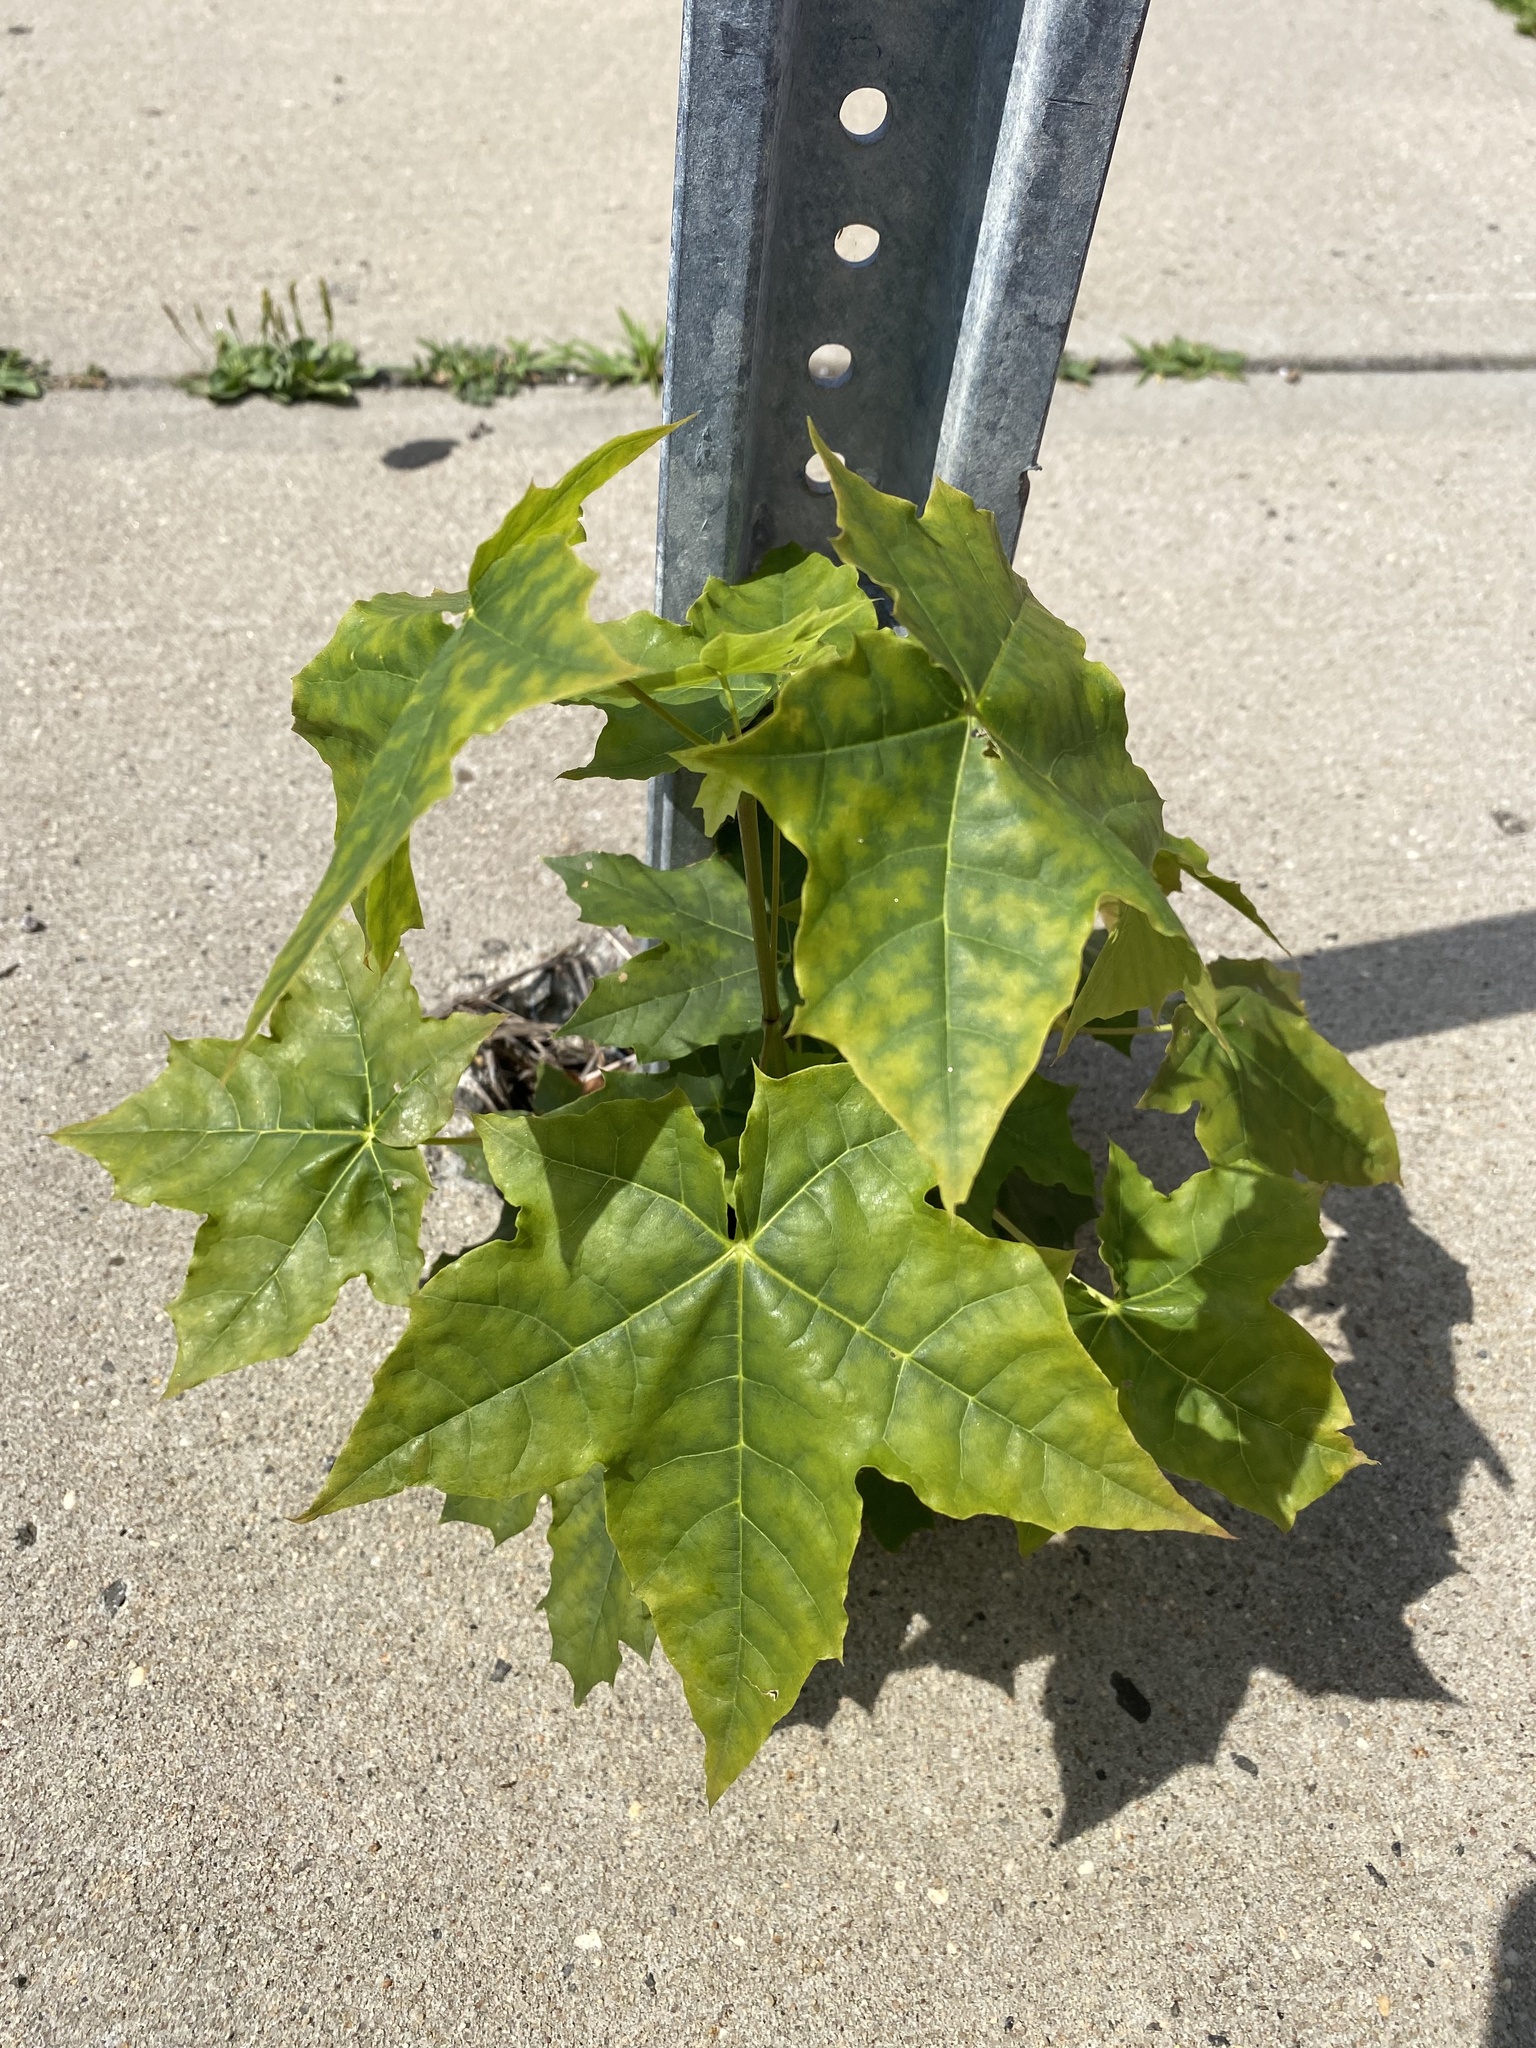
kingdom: Plantae
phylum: Tracheophyta
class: Magnoliopsida
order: Sapindales
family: Sapindaceae
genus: Acer
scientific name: Acer platanoides
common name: Norway maple
